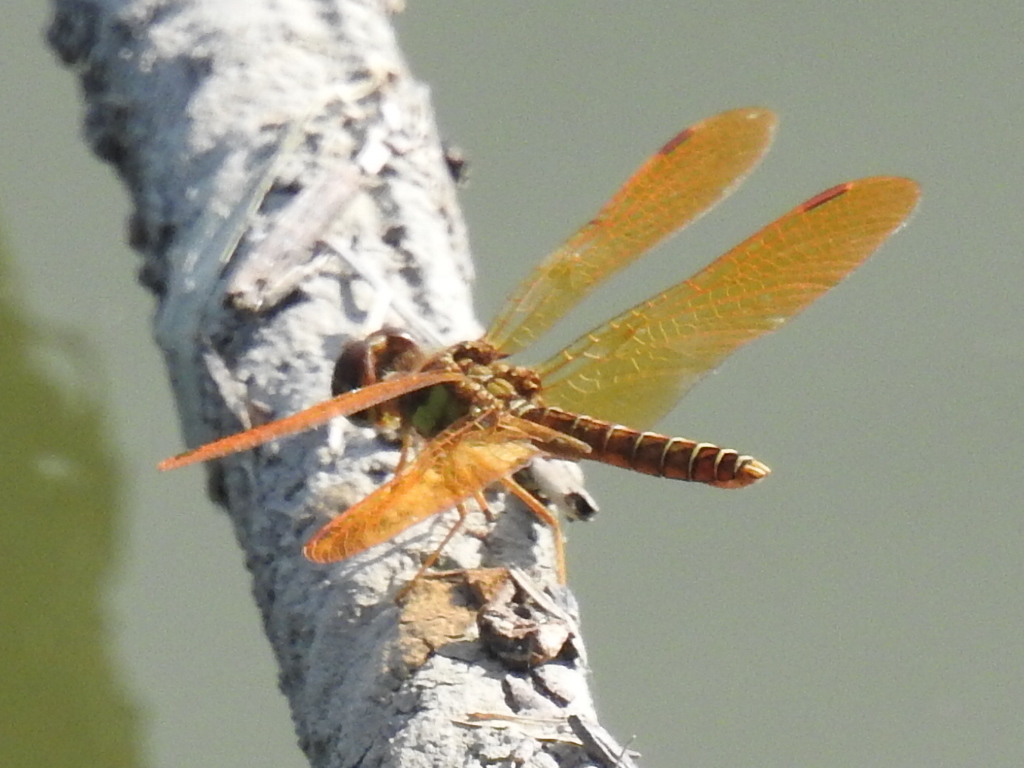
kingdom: Animalia
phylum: Arthropoda
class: Insecta
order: Odonata
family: Libellulidae
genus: Perithemis
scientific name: Perithemis tenera
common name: Eastern amberwing
